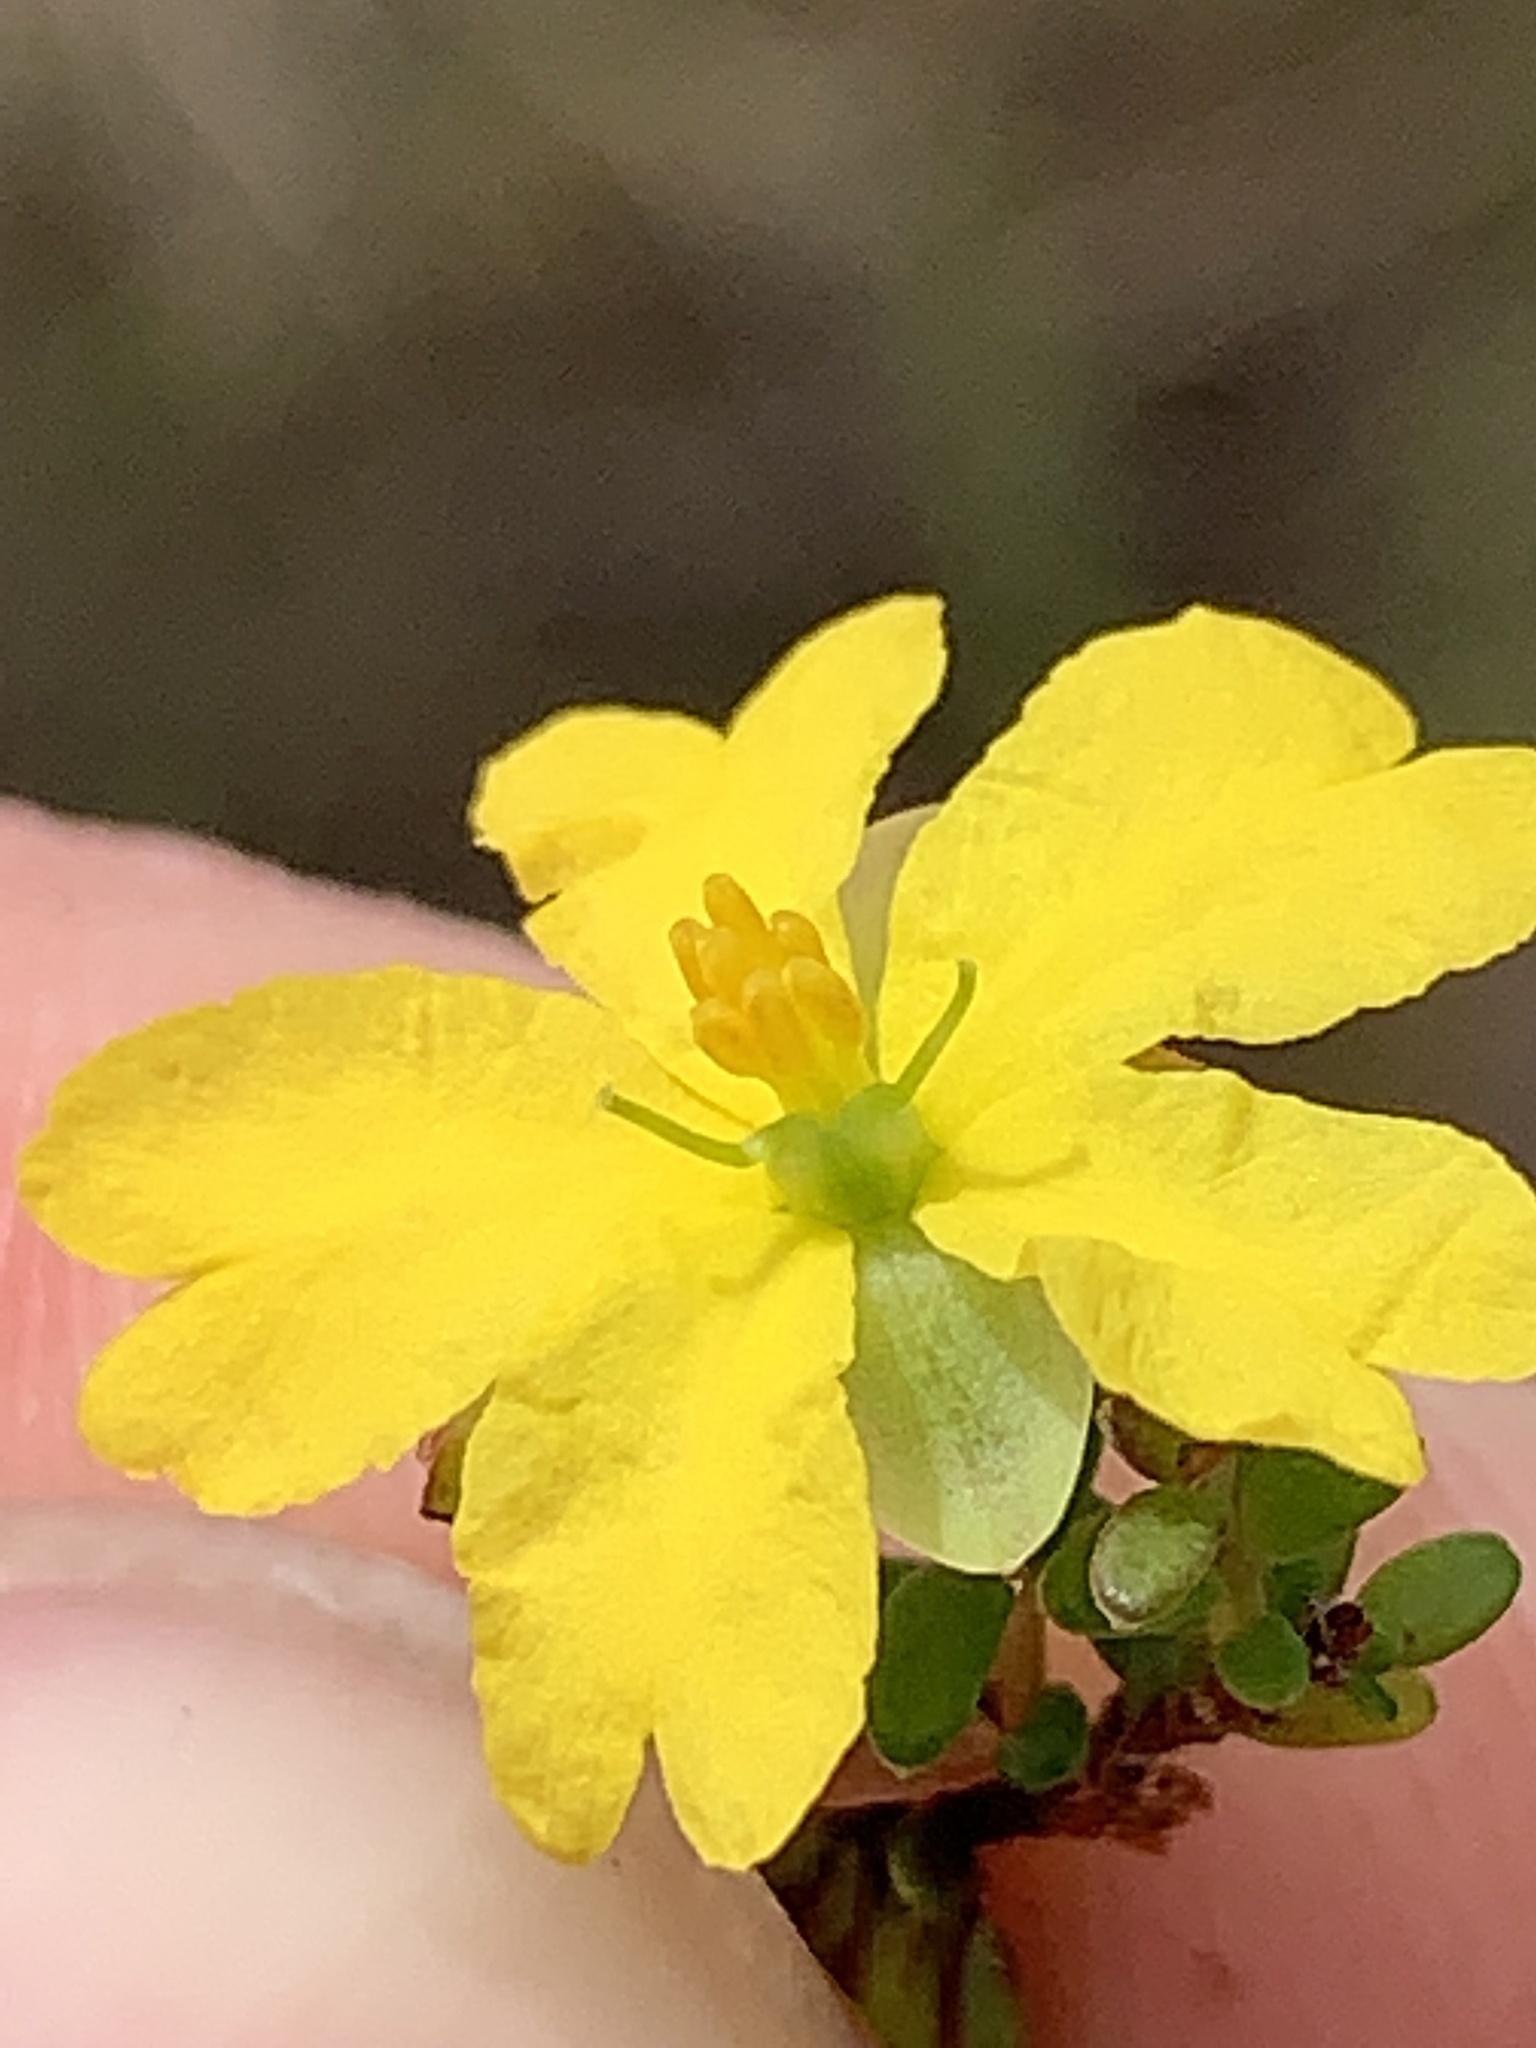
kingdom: Plantae
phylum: Tracheophyta
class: Magnoliopsida
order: Dilleniales
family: Dilleniaceae
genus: Hibbertia
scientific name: Hibbertia puberula
